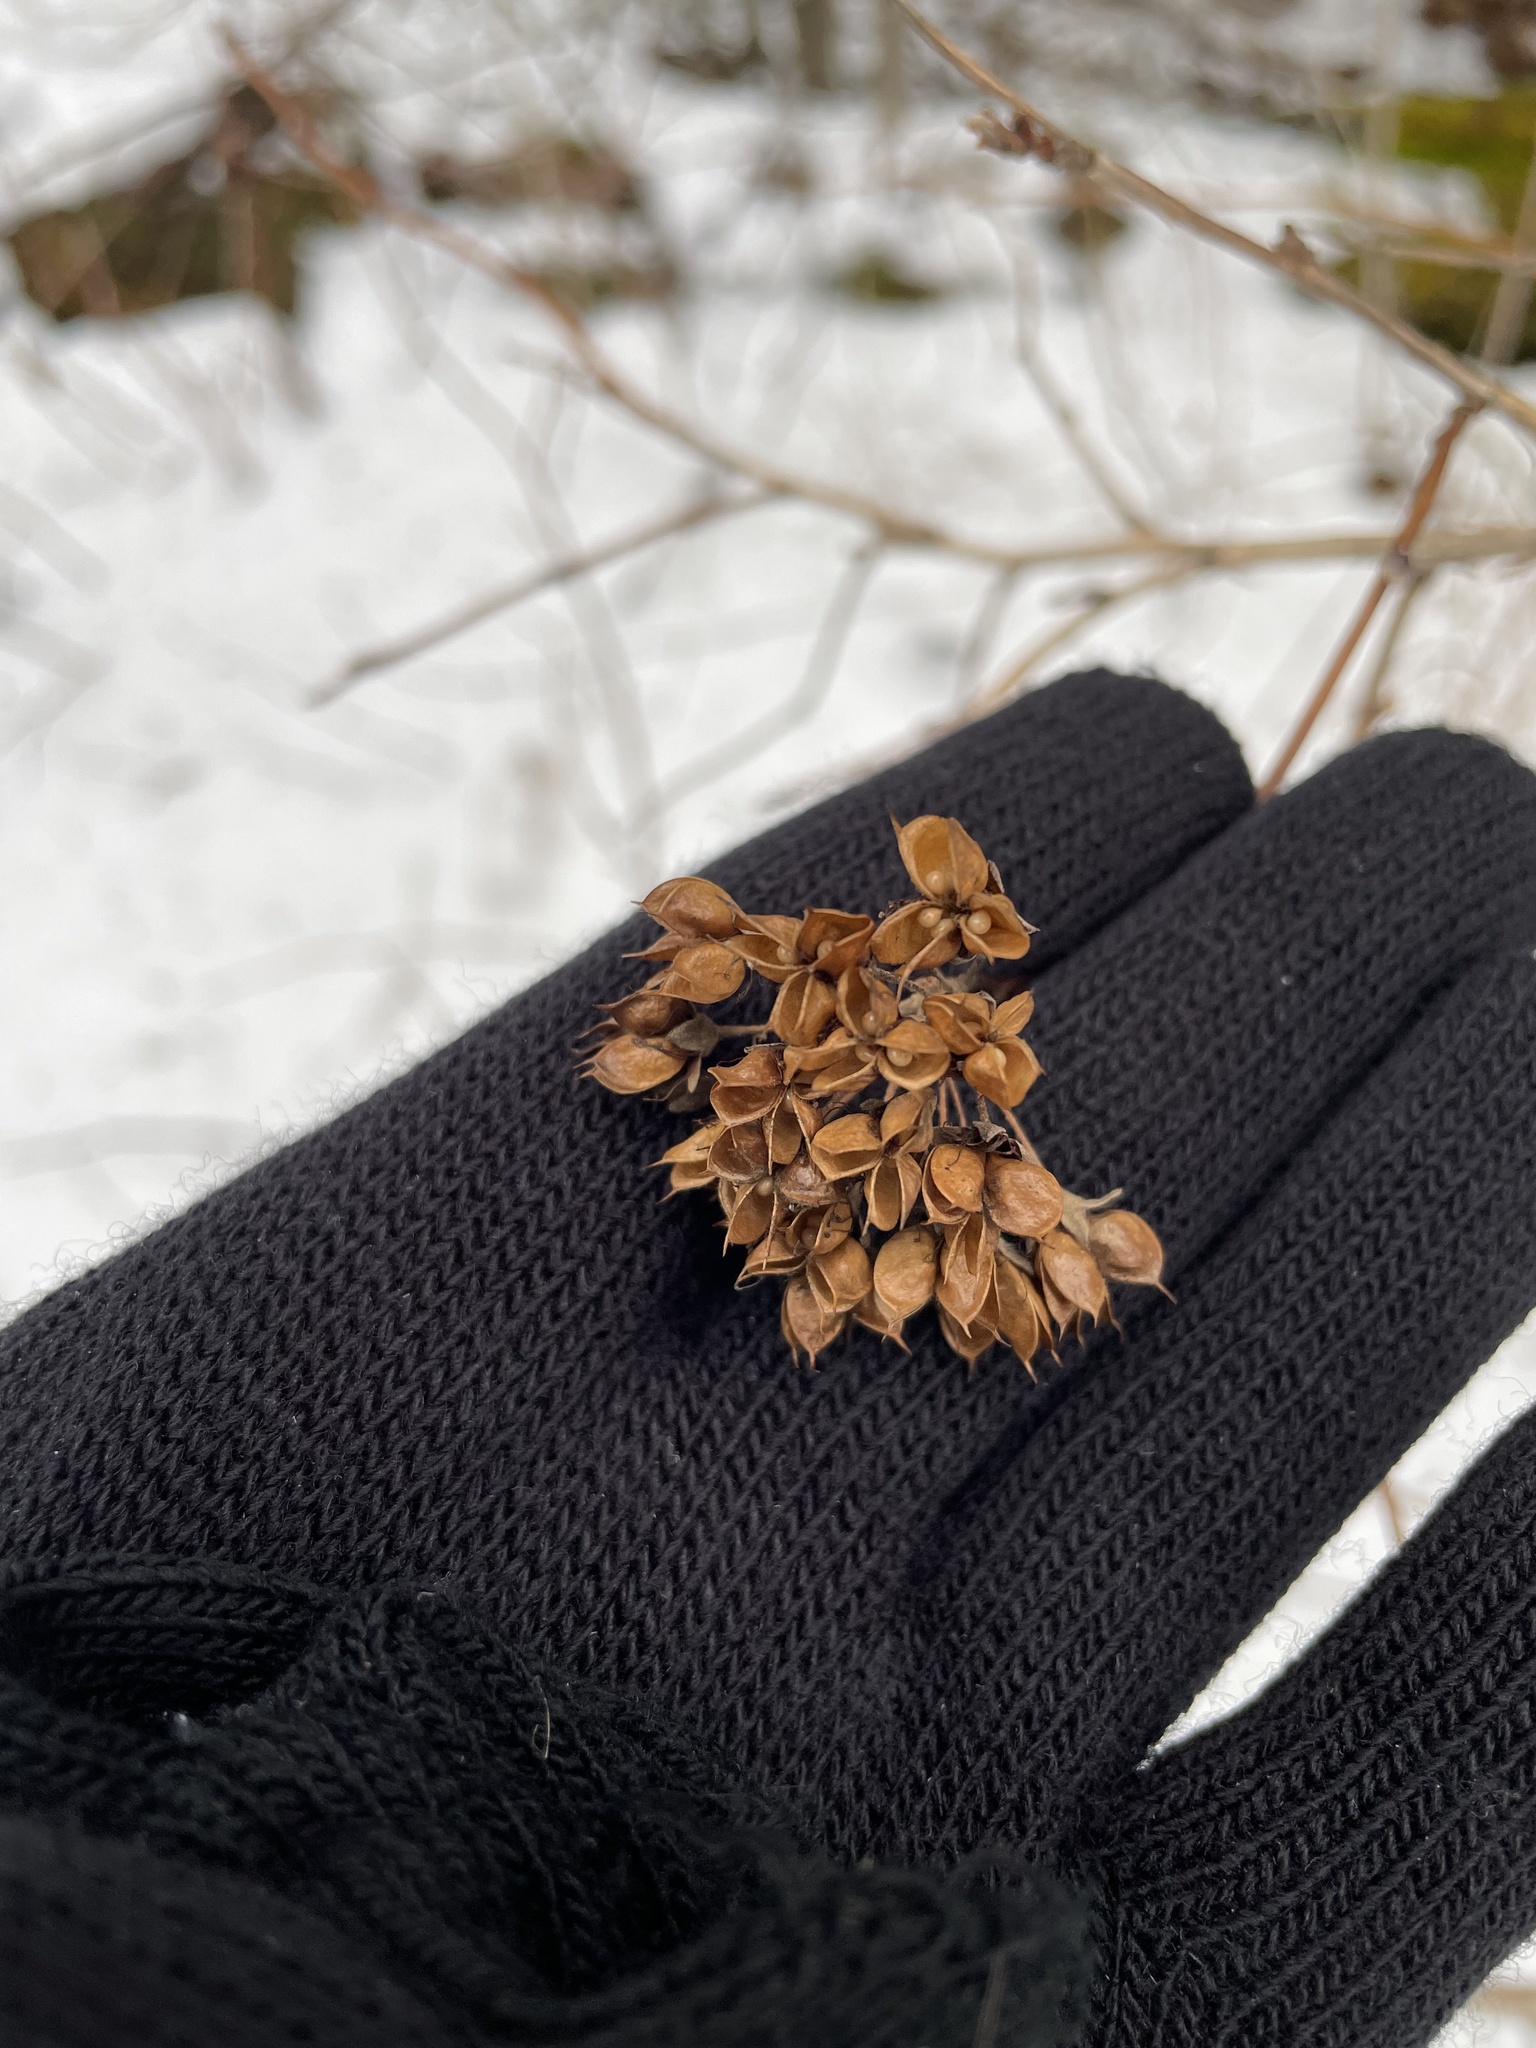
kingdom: Plantae
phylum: Tracheophyta
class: Magnoliopsida
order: Rosales
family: Rosaceae
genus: Physocarpus
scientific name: Physocarpus opulifolius
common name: Ninebark
